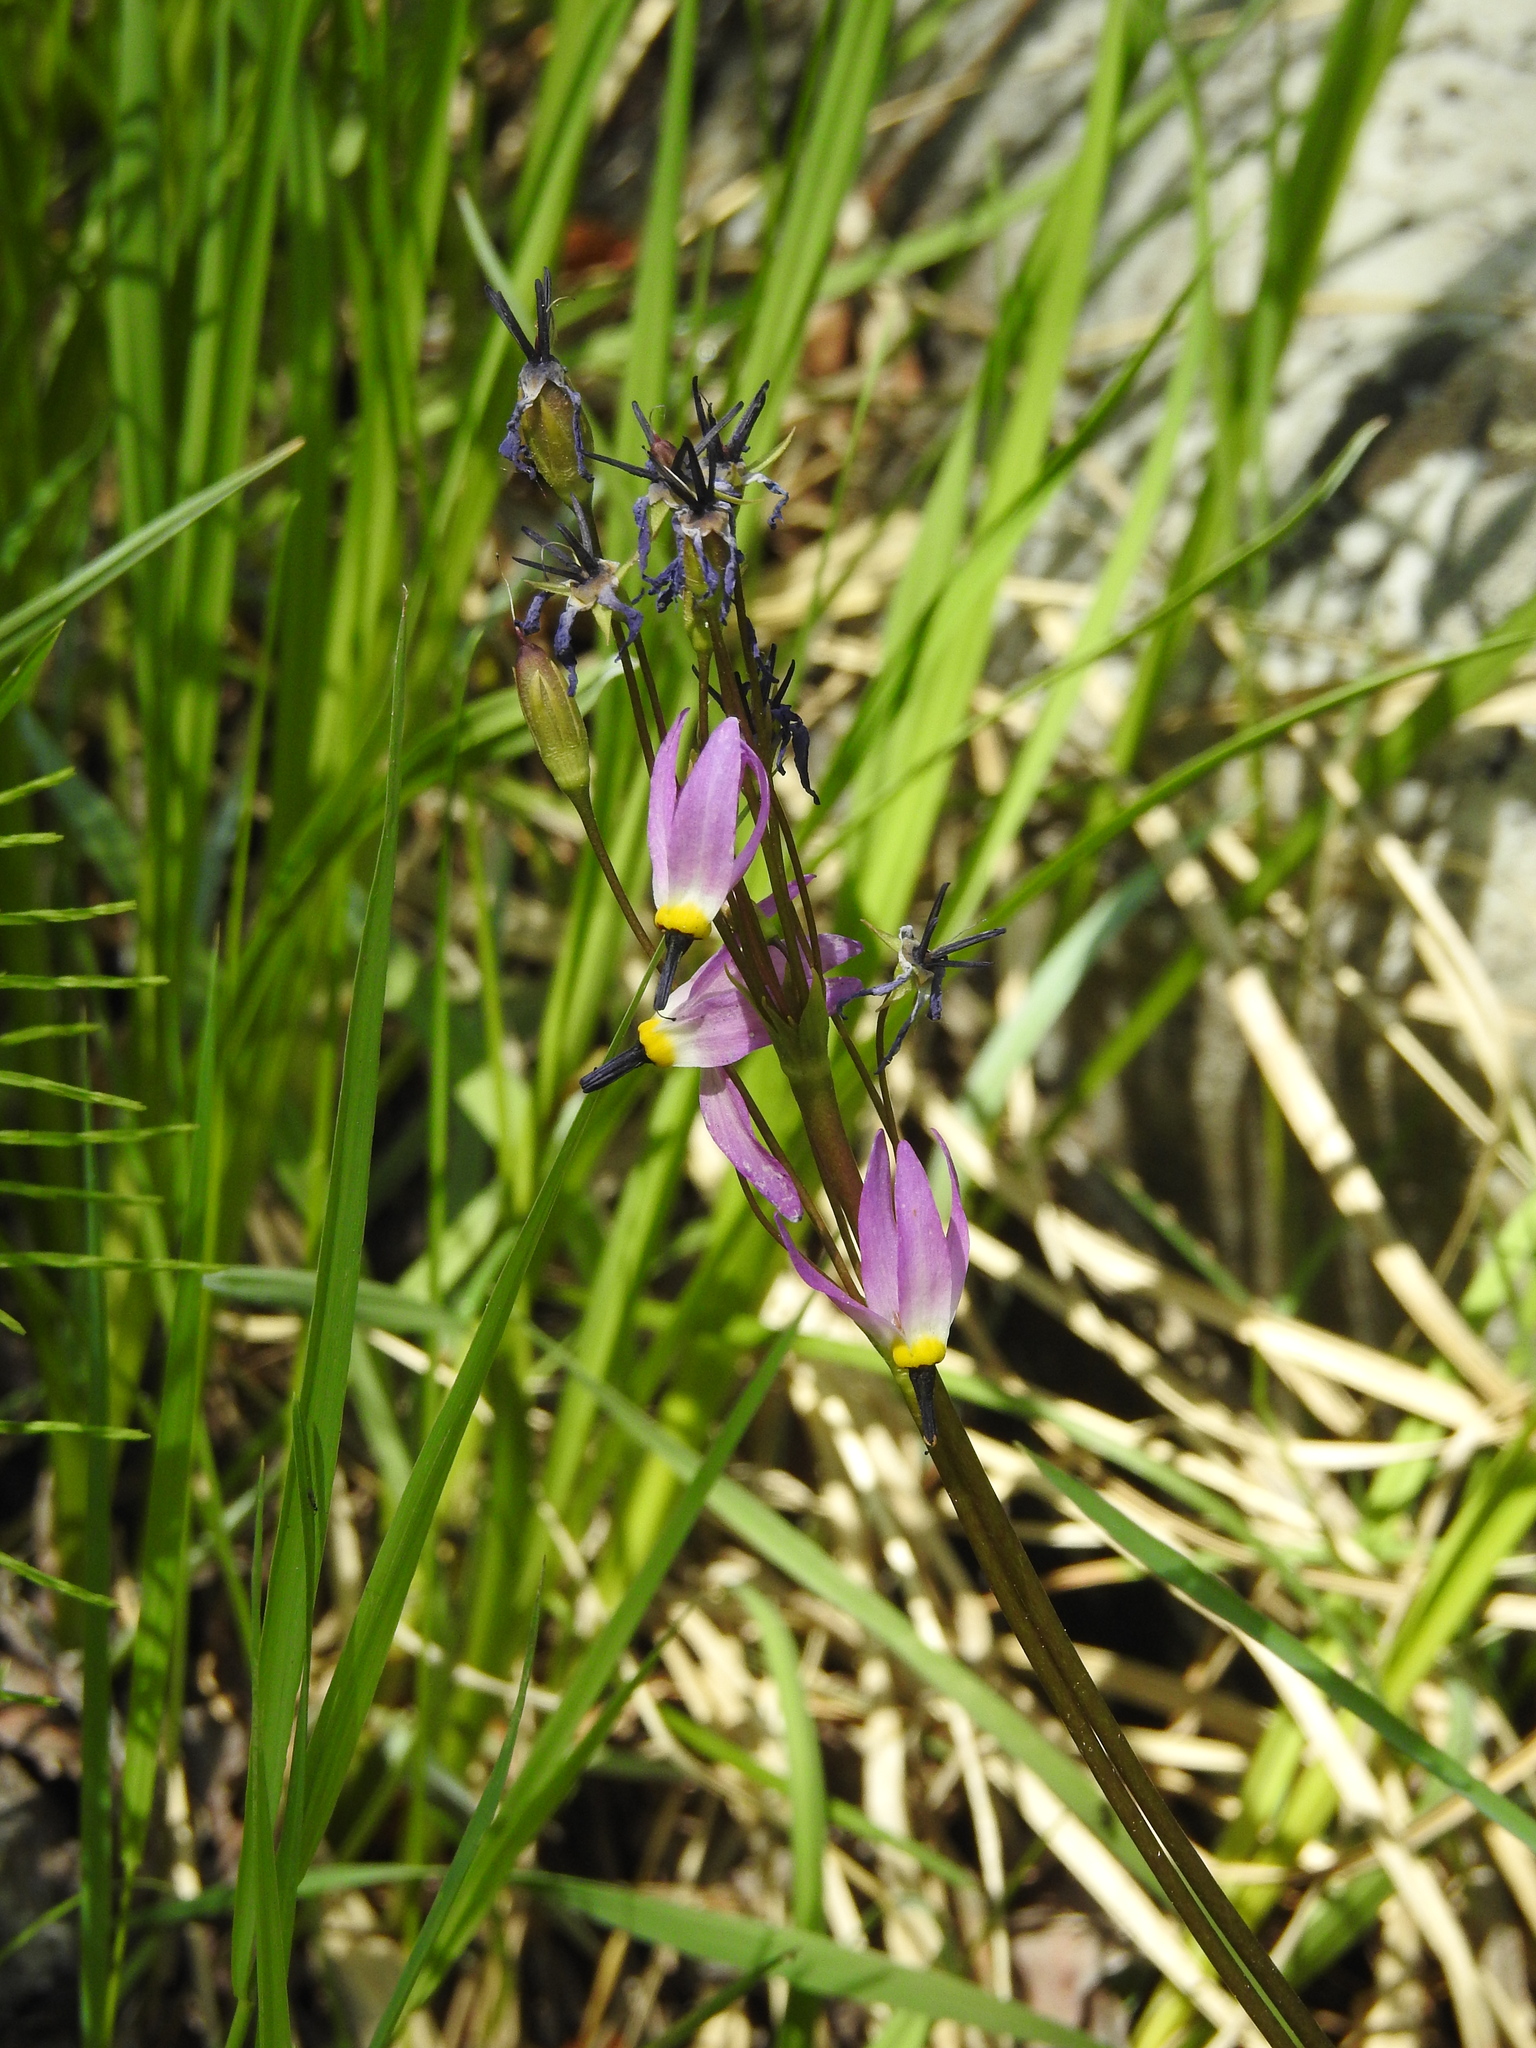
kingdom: Plantae
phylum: Tracheophyta
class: Magnoliopsida
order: Ericales
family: Primulaceae
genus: Dodecatheon
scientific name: Dodecatheon alpinum
